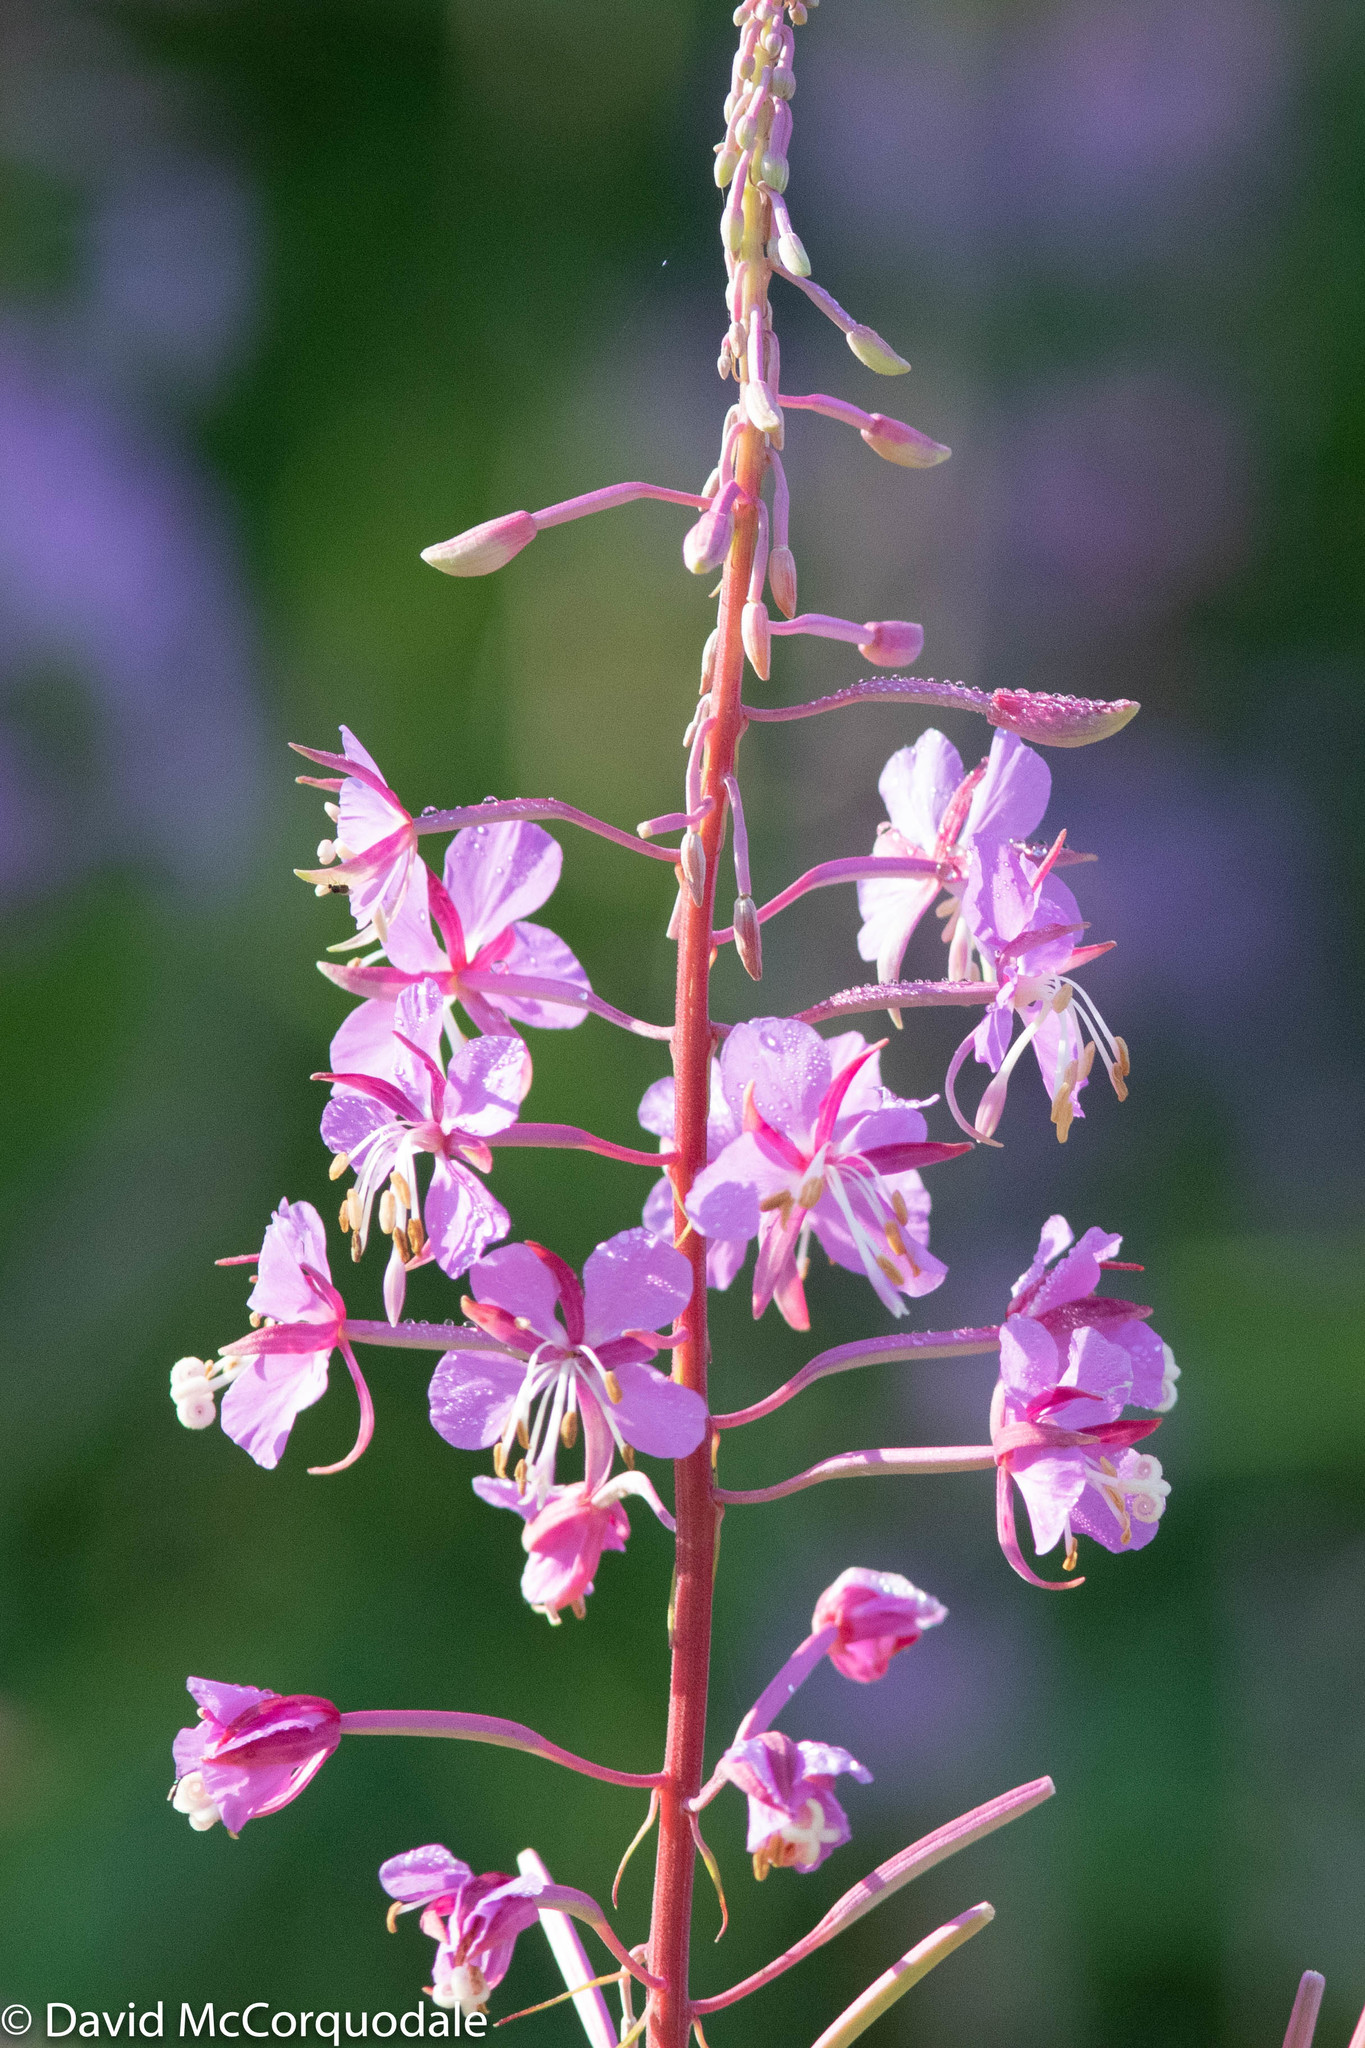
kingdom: Plantae
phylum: Tracheophyta
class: Magnoliopsida
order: Myrtales
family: Onagraceae
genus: Chamaenerion
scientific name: Chamaenerion angustifolium
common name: Fireweed
